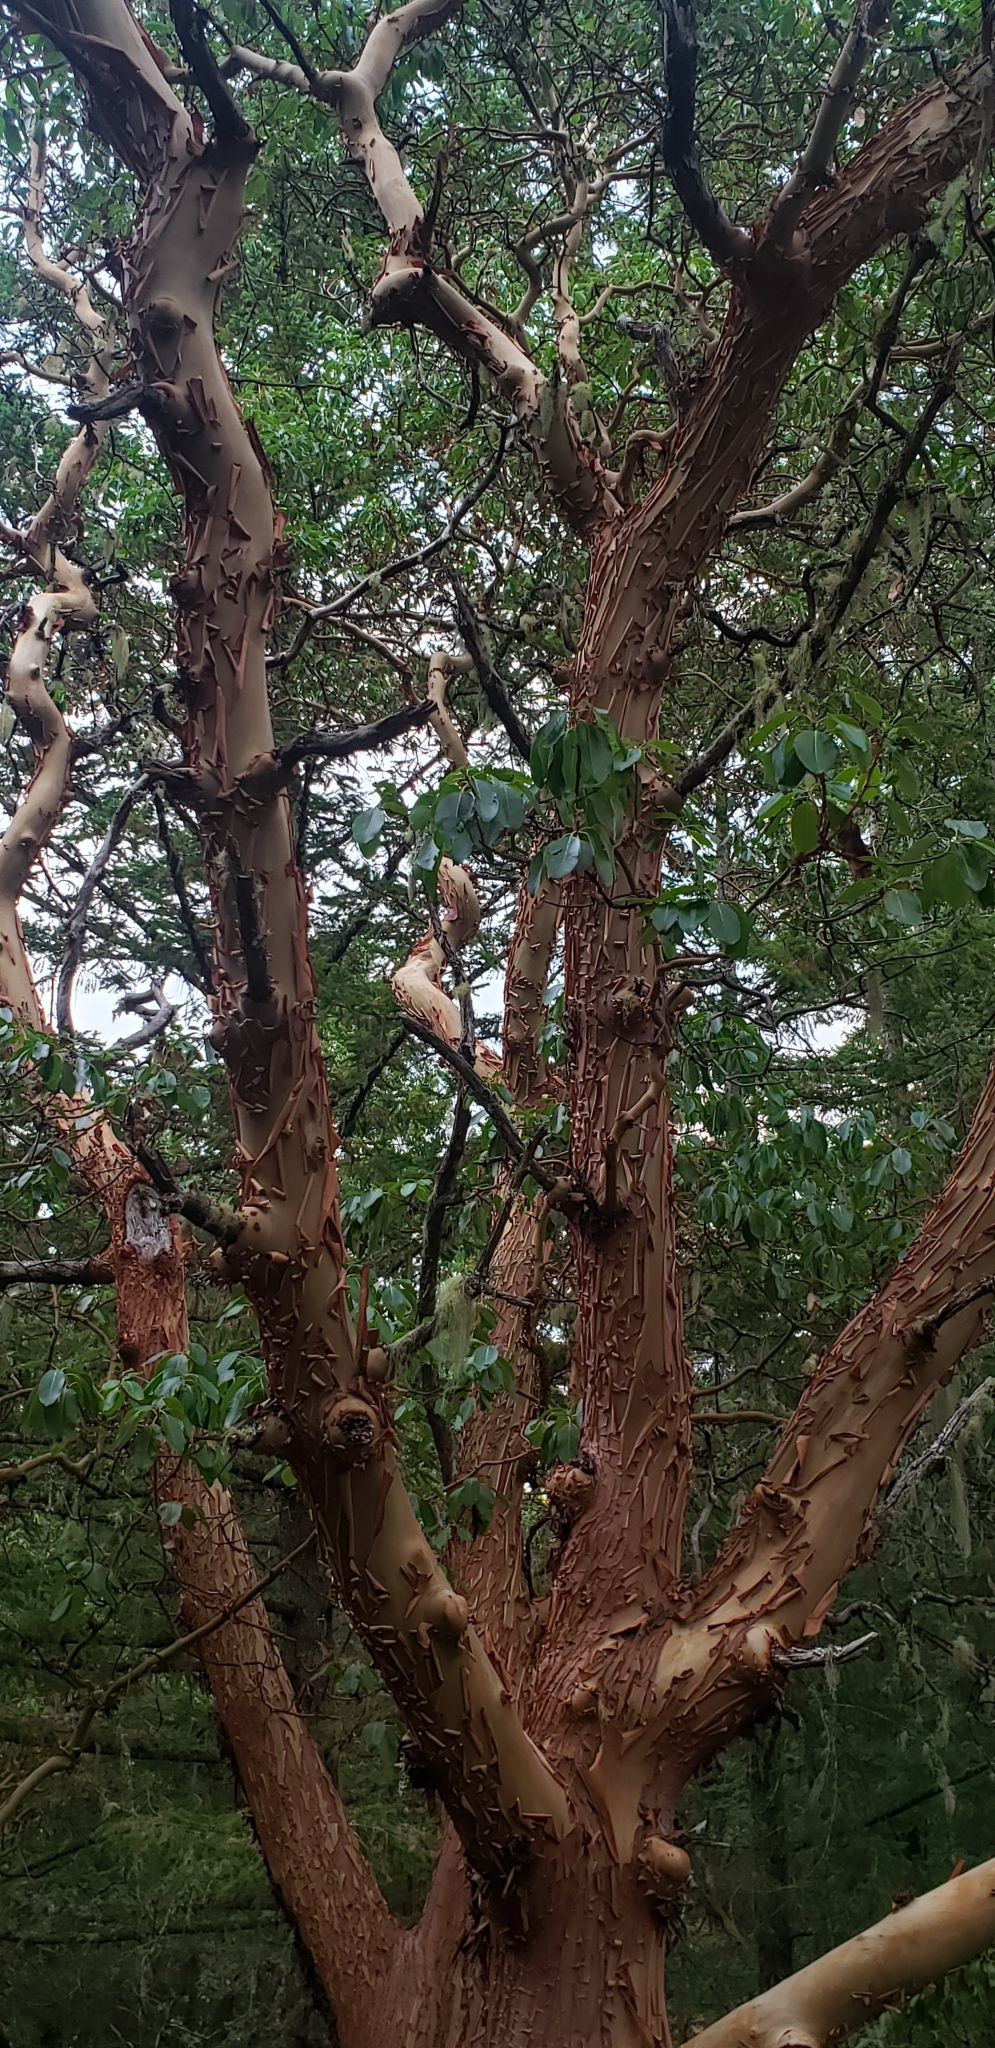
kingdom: Plantae
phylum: Tracheophyta
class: Magnoliopsida
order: Ericales
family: Ericaceae
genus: Arbutus
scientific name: Arbutus menziesii
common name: Pacific madrone
